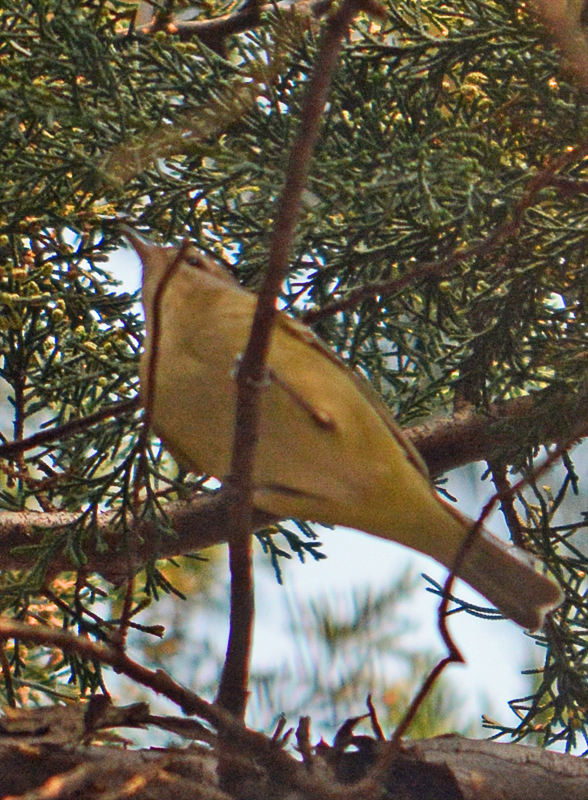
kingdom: Animalia
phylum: Chordata
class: Aves
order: Passeriformes
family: Vireonidae
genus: Vireo
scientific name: Vireo gilvus
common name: Warbling vireo
